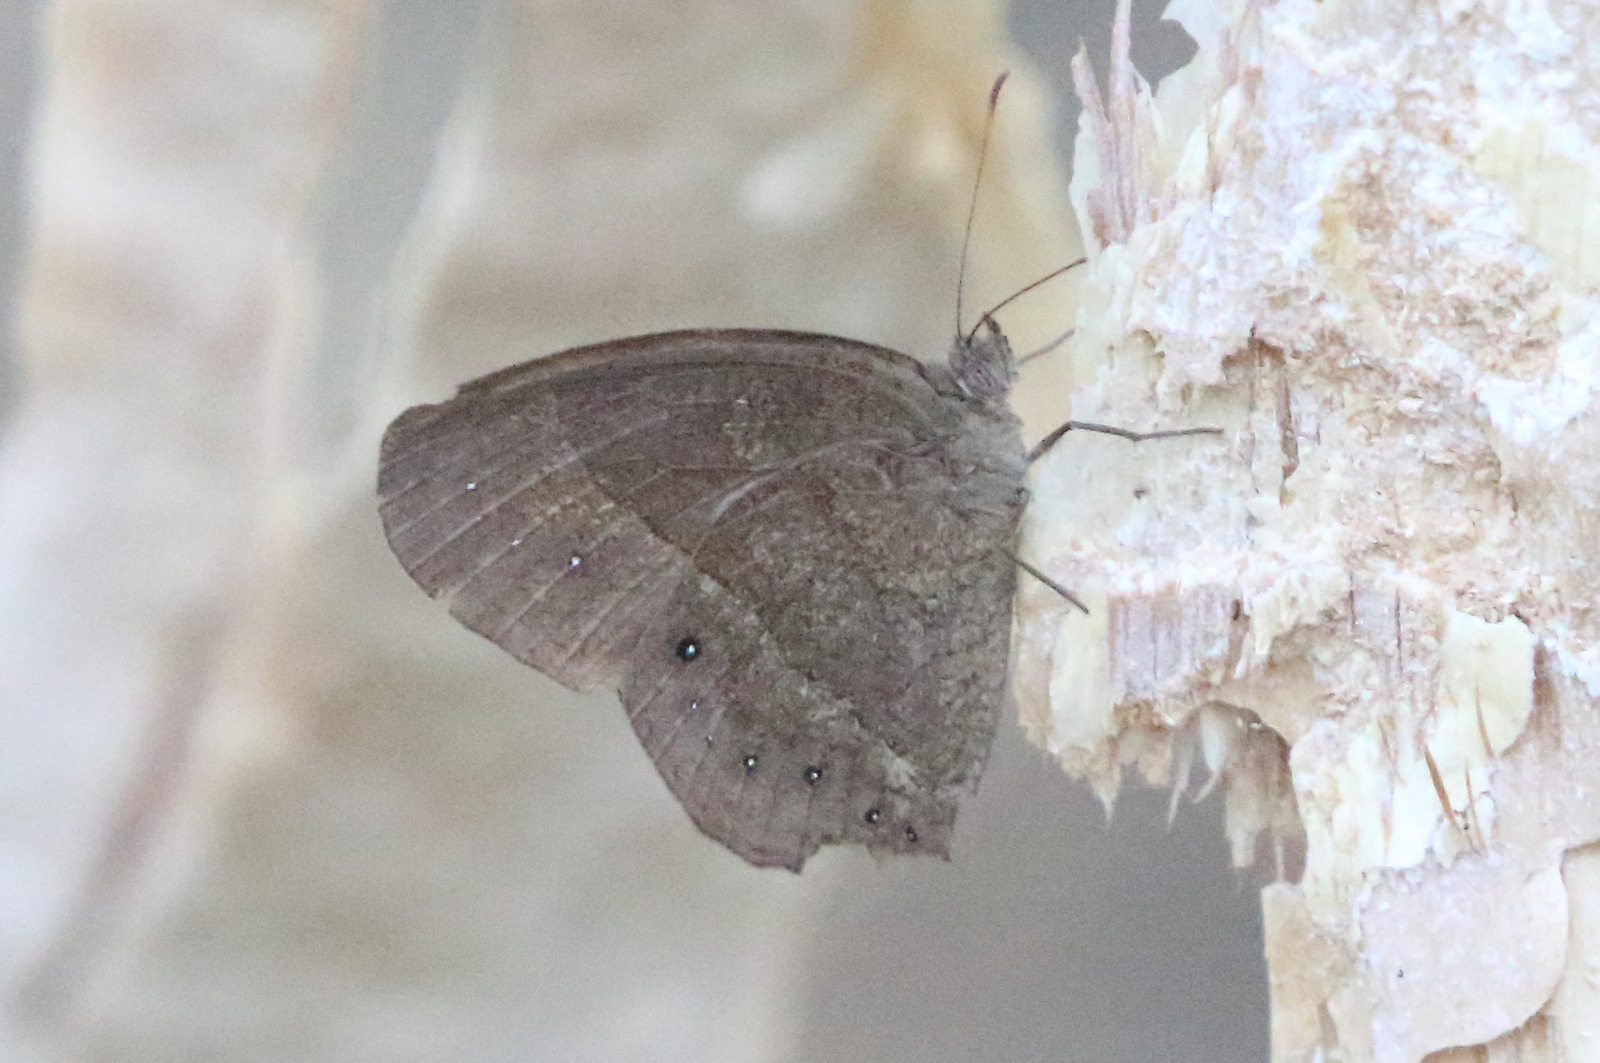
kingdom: Animalia
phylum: Arthropoda
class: Insecta
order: Lepidoptera
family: Nymphalidae
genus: Mycalesis
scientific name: Mycalesis perseus
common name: Dingy bushbrown
